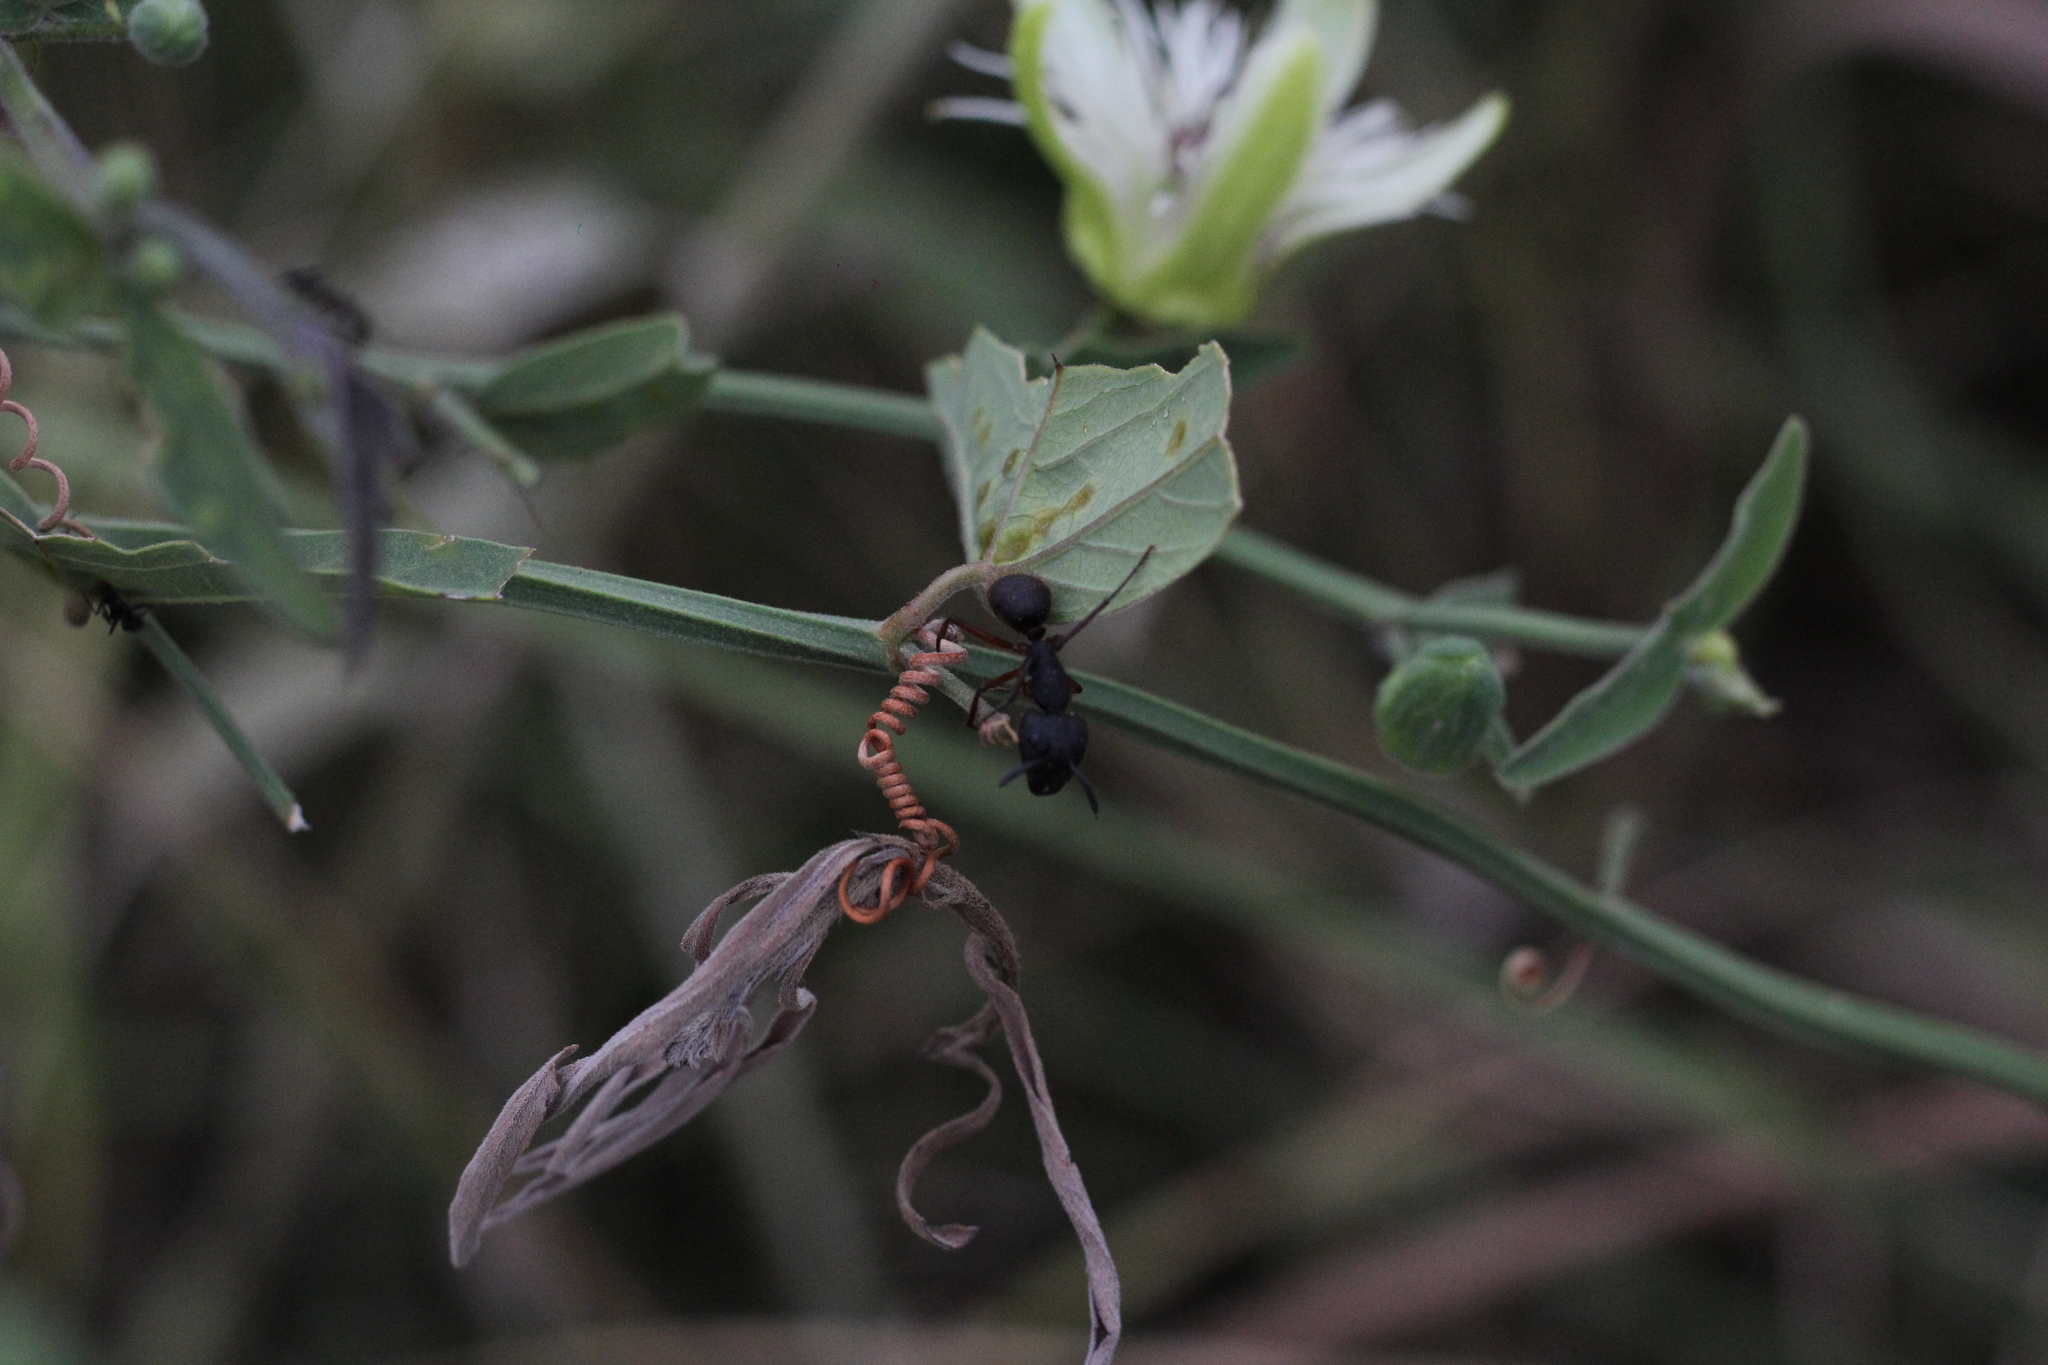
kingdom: Animalia
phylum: Arthropoda
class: Insecta
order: Hymenoptera
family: Formicidae
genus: Camponotus
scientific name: Camponotus rufipes
